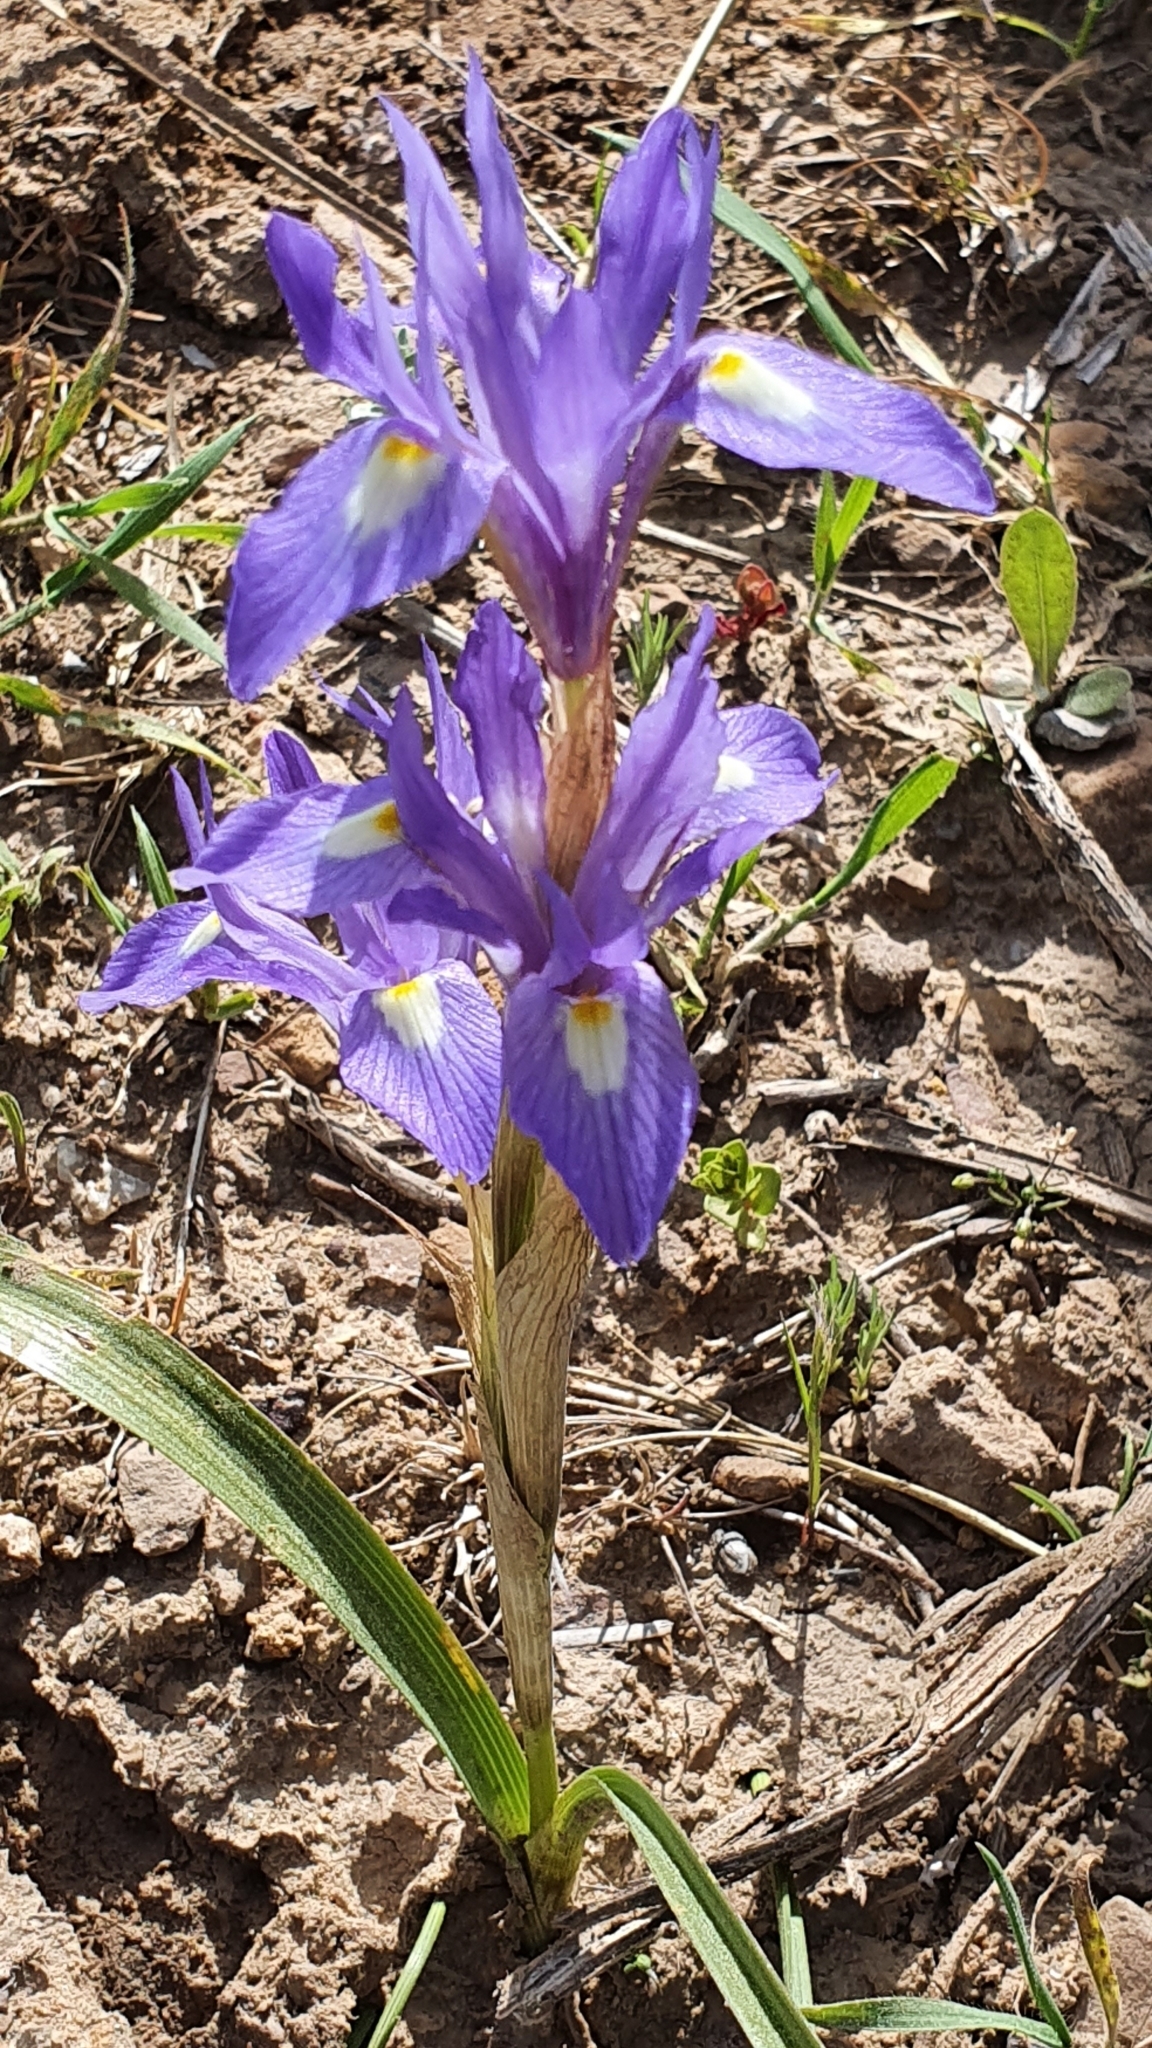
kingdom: Plantae
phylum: Tracheophyta
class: Liliopsida
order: Asparagales
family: Iridaceae
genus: Moraea
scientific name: Moraea sisyrinchium
